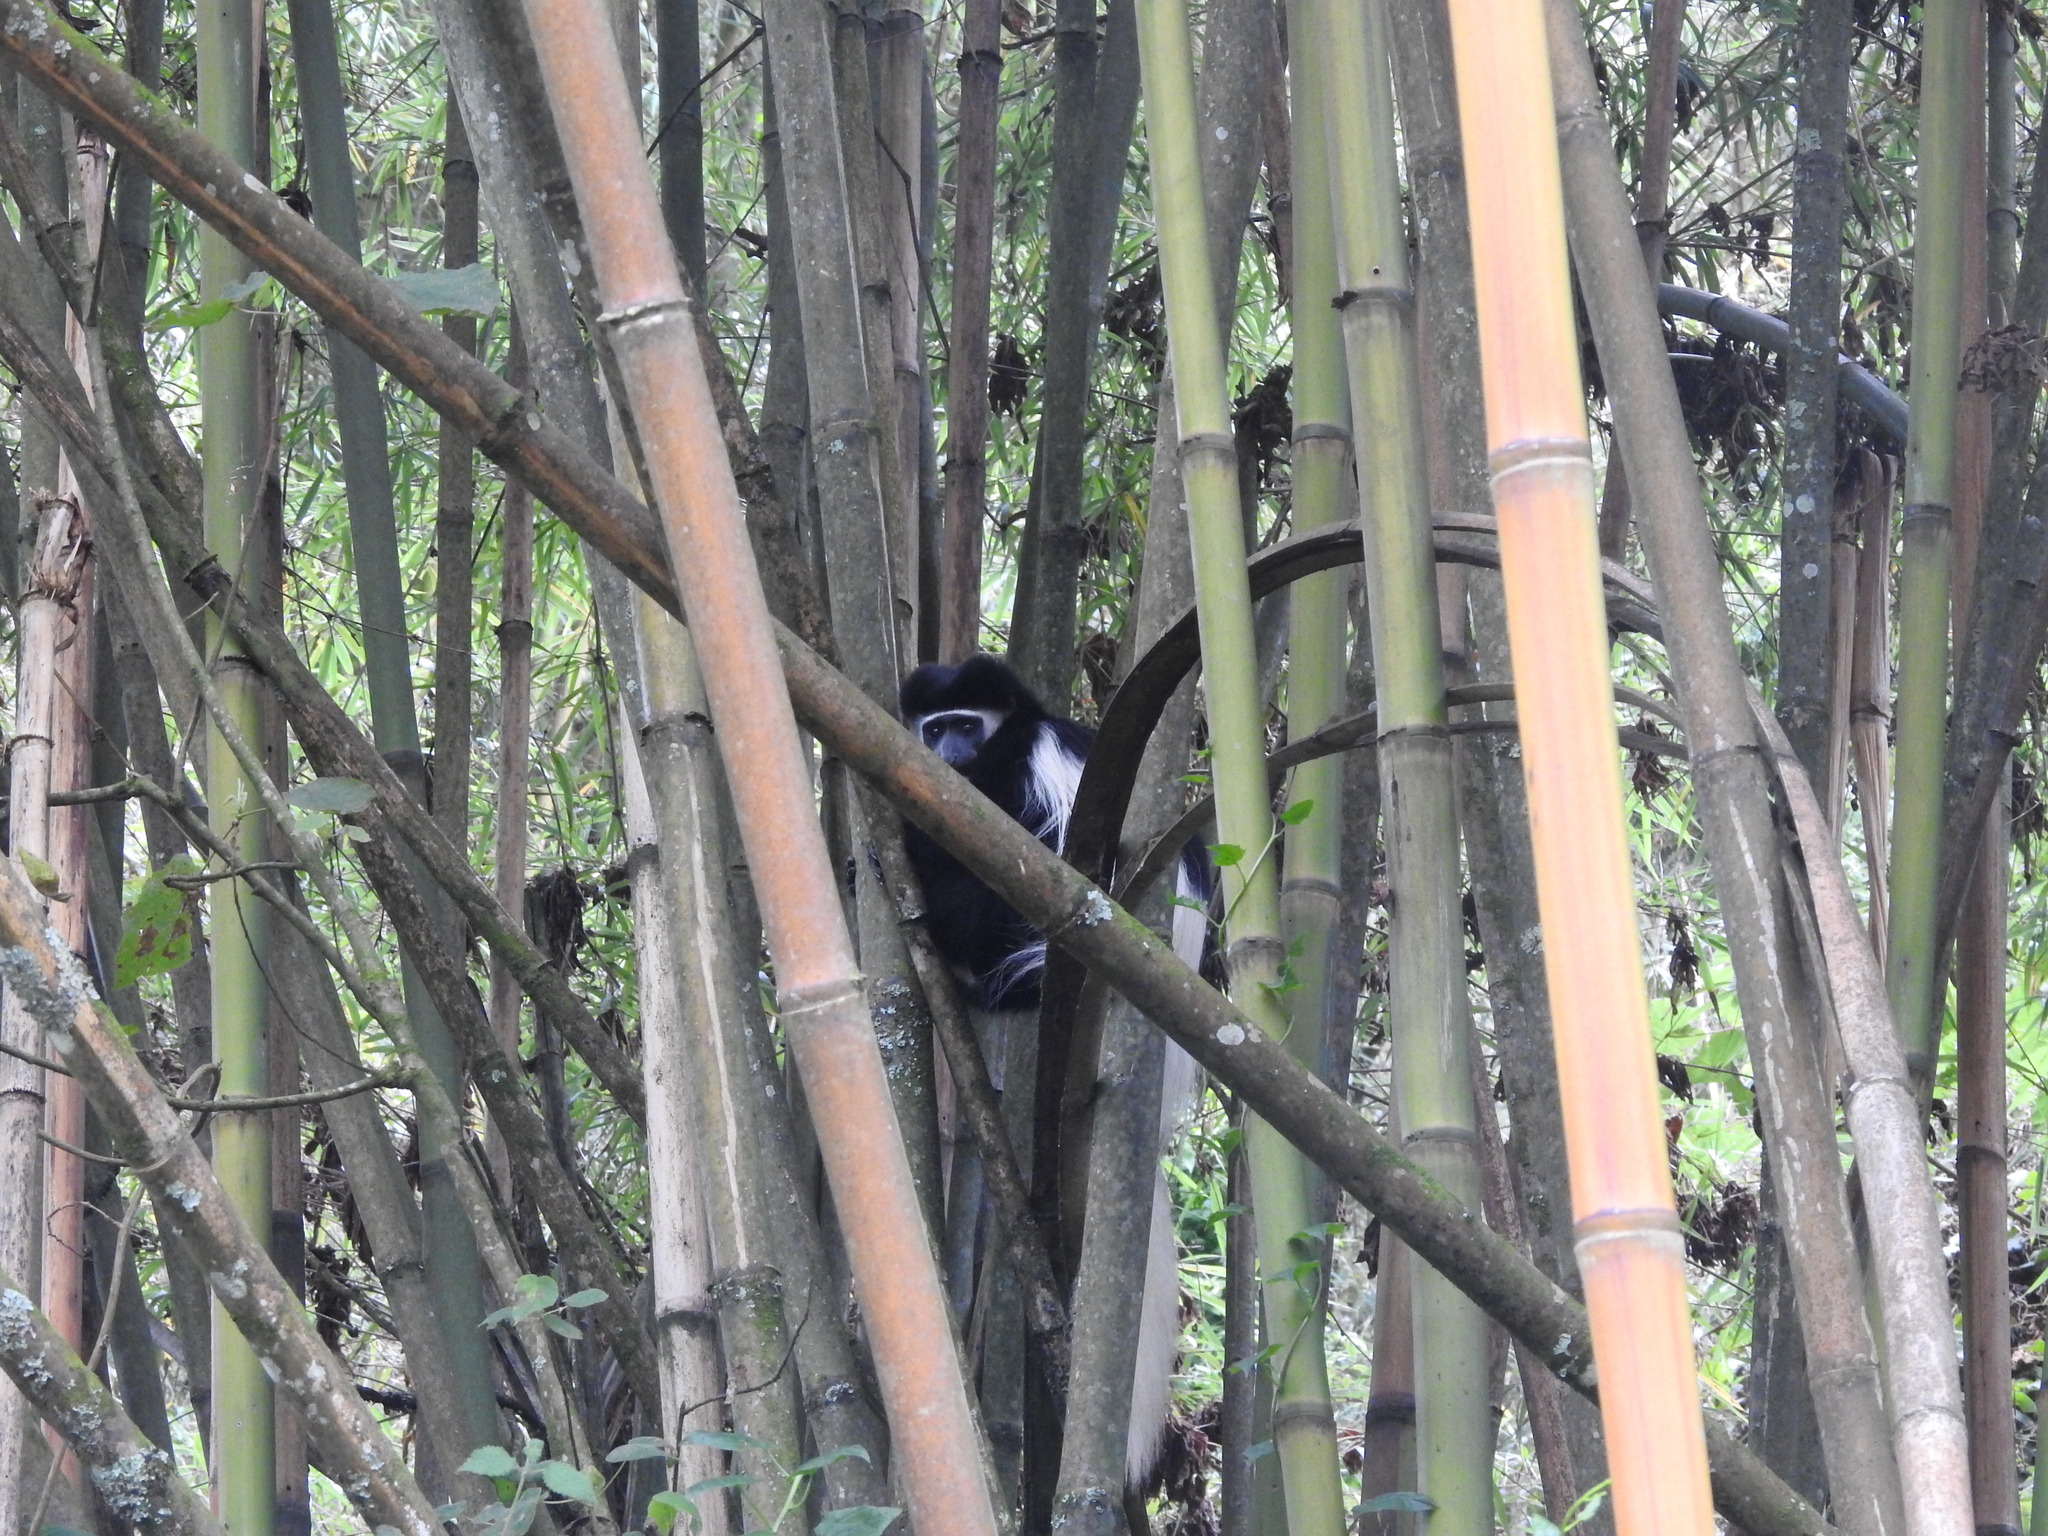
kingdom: Animalia
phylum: Chordata
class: Mammalia
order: Primates
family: Cercopithecidae
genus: Colobus
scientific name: Colobus guereza
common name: Mantled guereza
